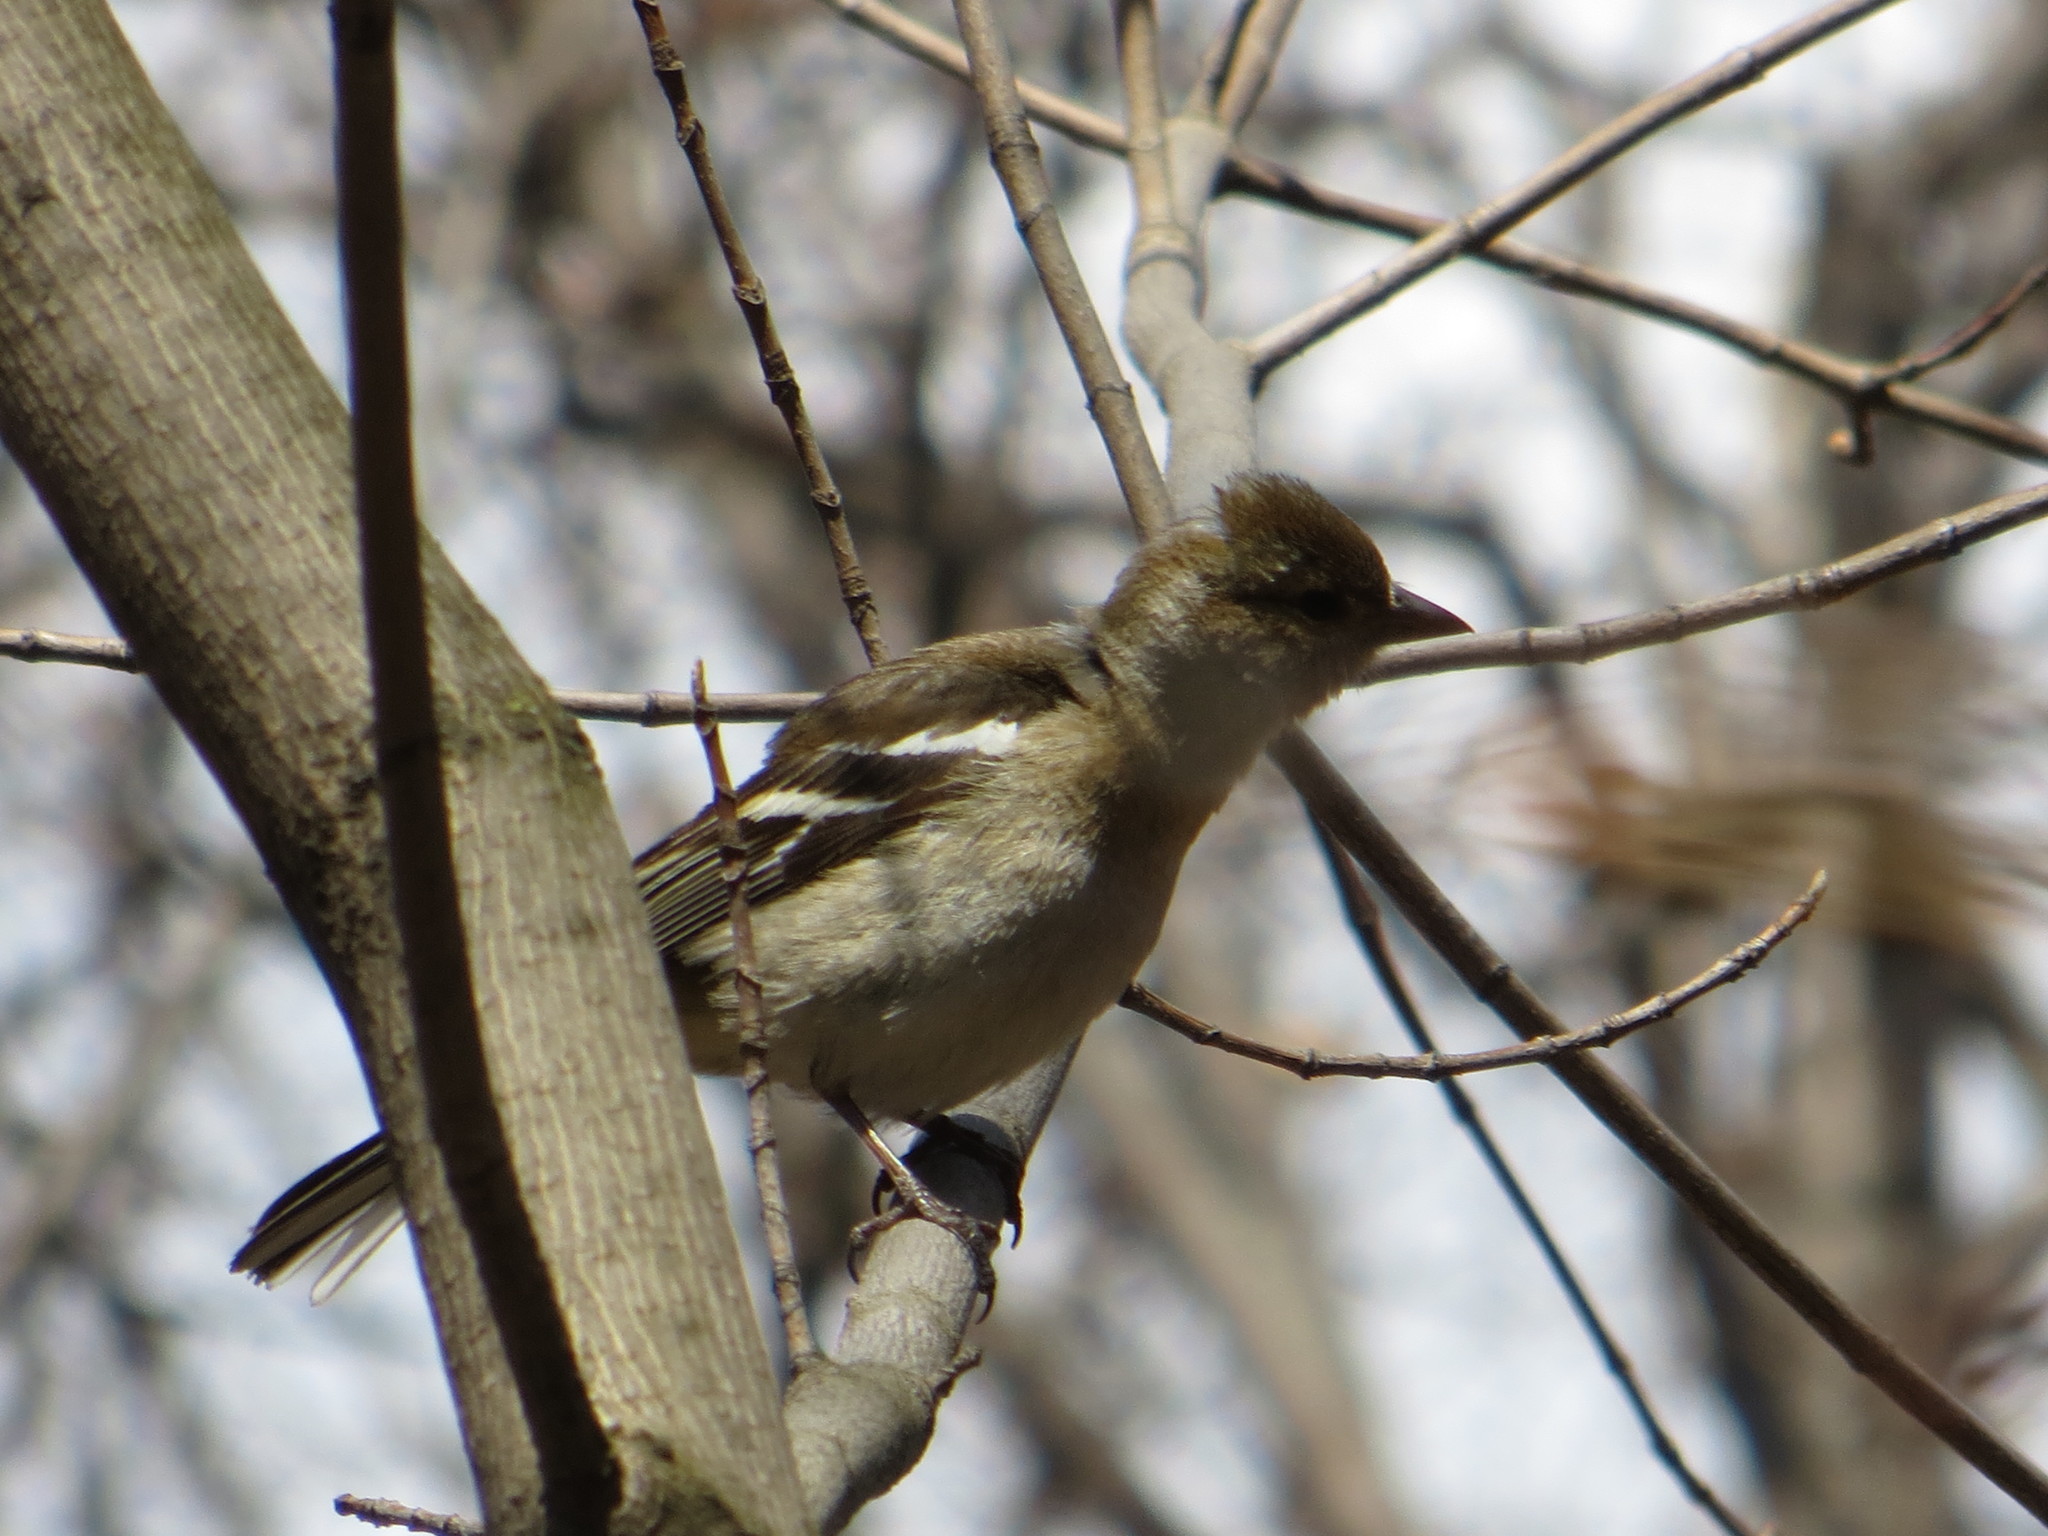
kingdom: Animalia
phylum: Chordata
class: Aves
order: Passeriformes
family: Fringillidae
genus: Fringilla
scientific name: Fringilla coelebs
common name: Common chaffinch
